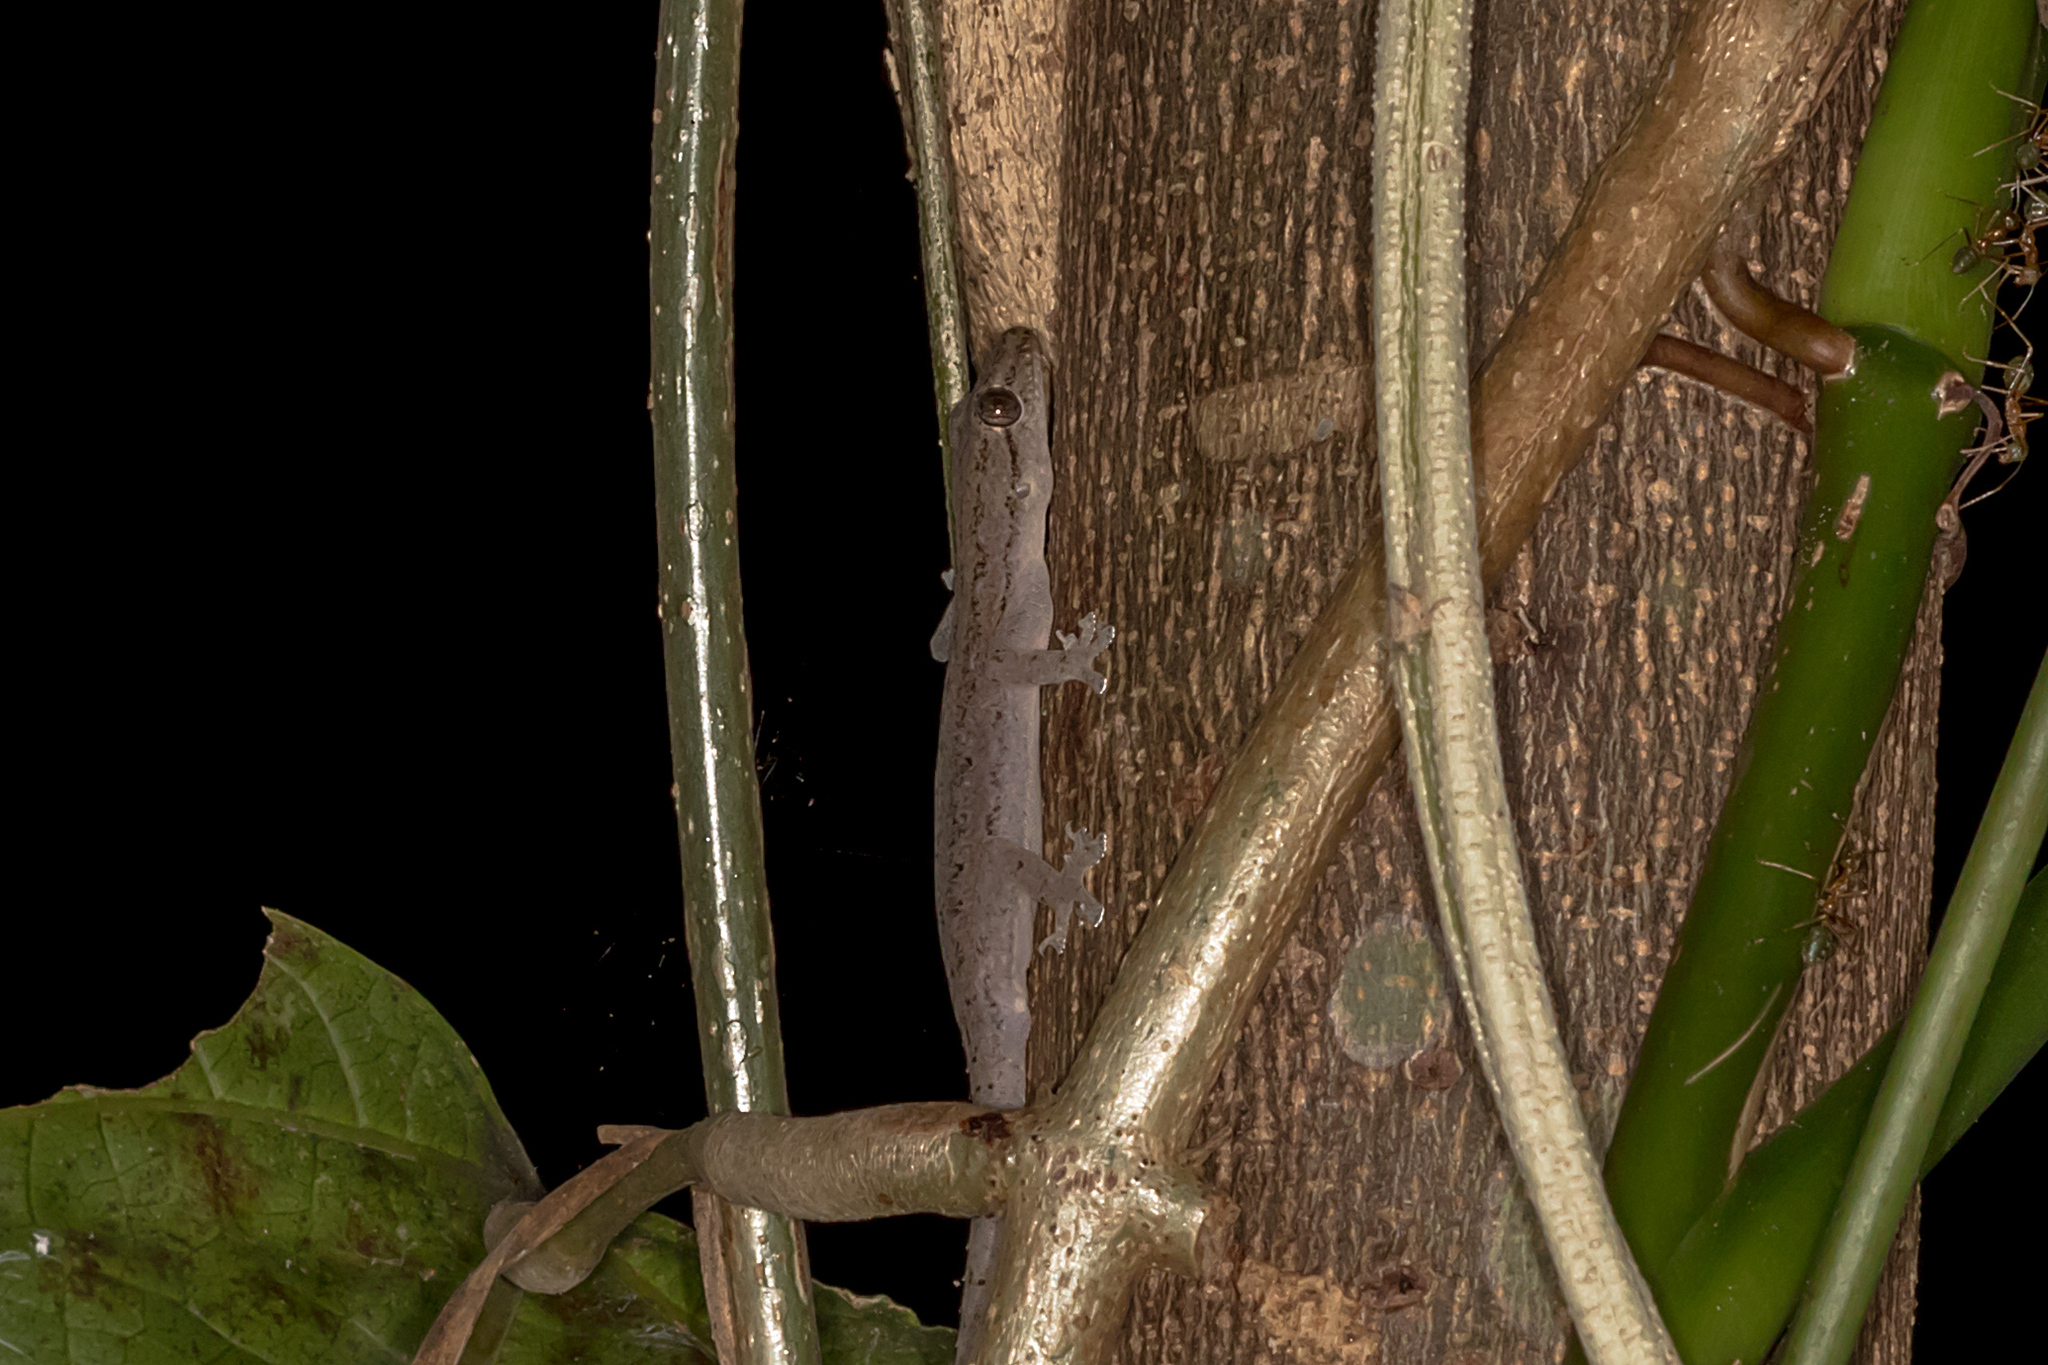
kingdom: Animalia
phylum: Chordata
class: Squamata
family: Gekkonidae
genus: Hemidactylus
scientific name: Hemidactylus frenatus
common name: Common house gecko
